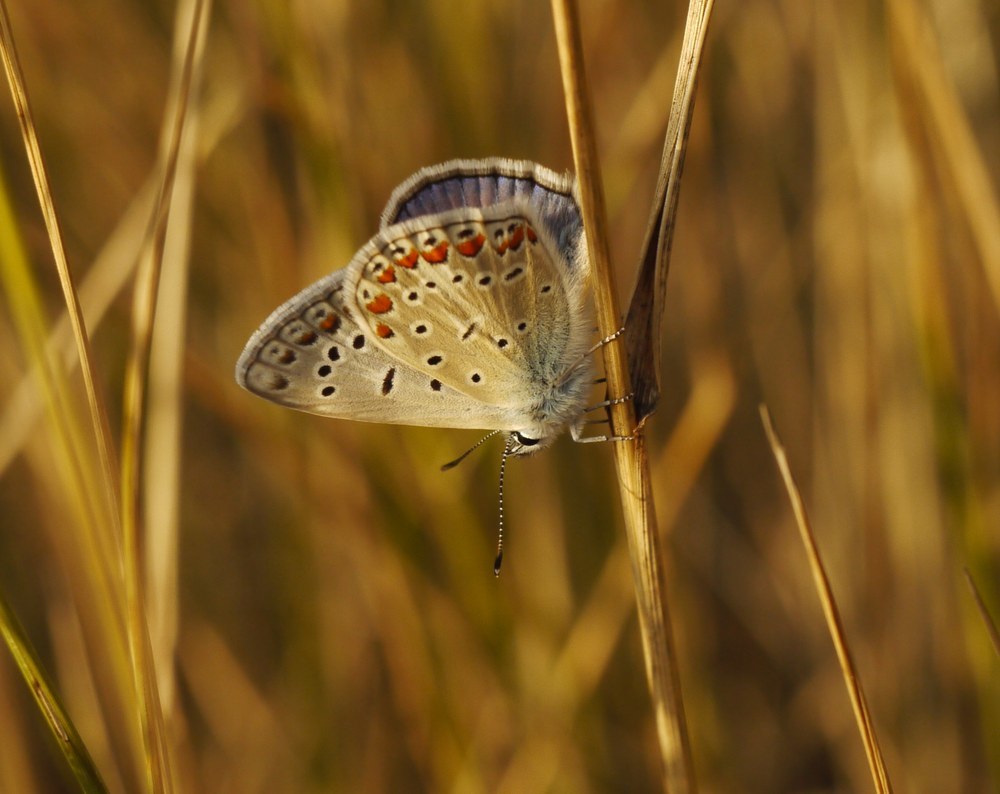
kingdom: Animalia
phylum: Arthropoda
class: Insecta
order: Lepidoptera
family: Lycaenidae
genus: Polyommatus
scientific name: Polyommatus icarus
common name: Common blue
